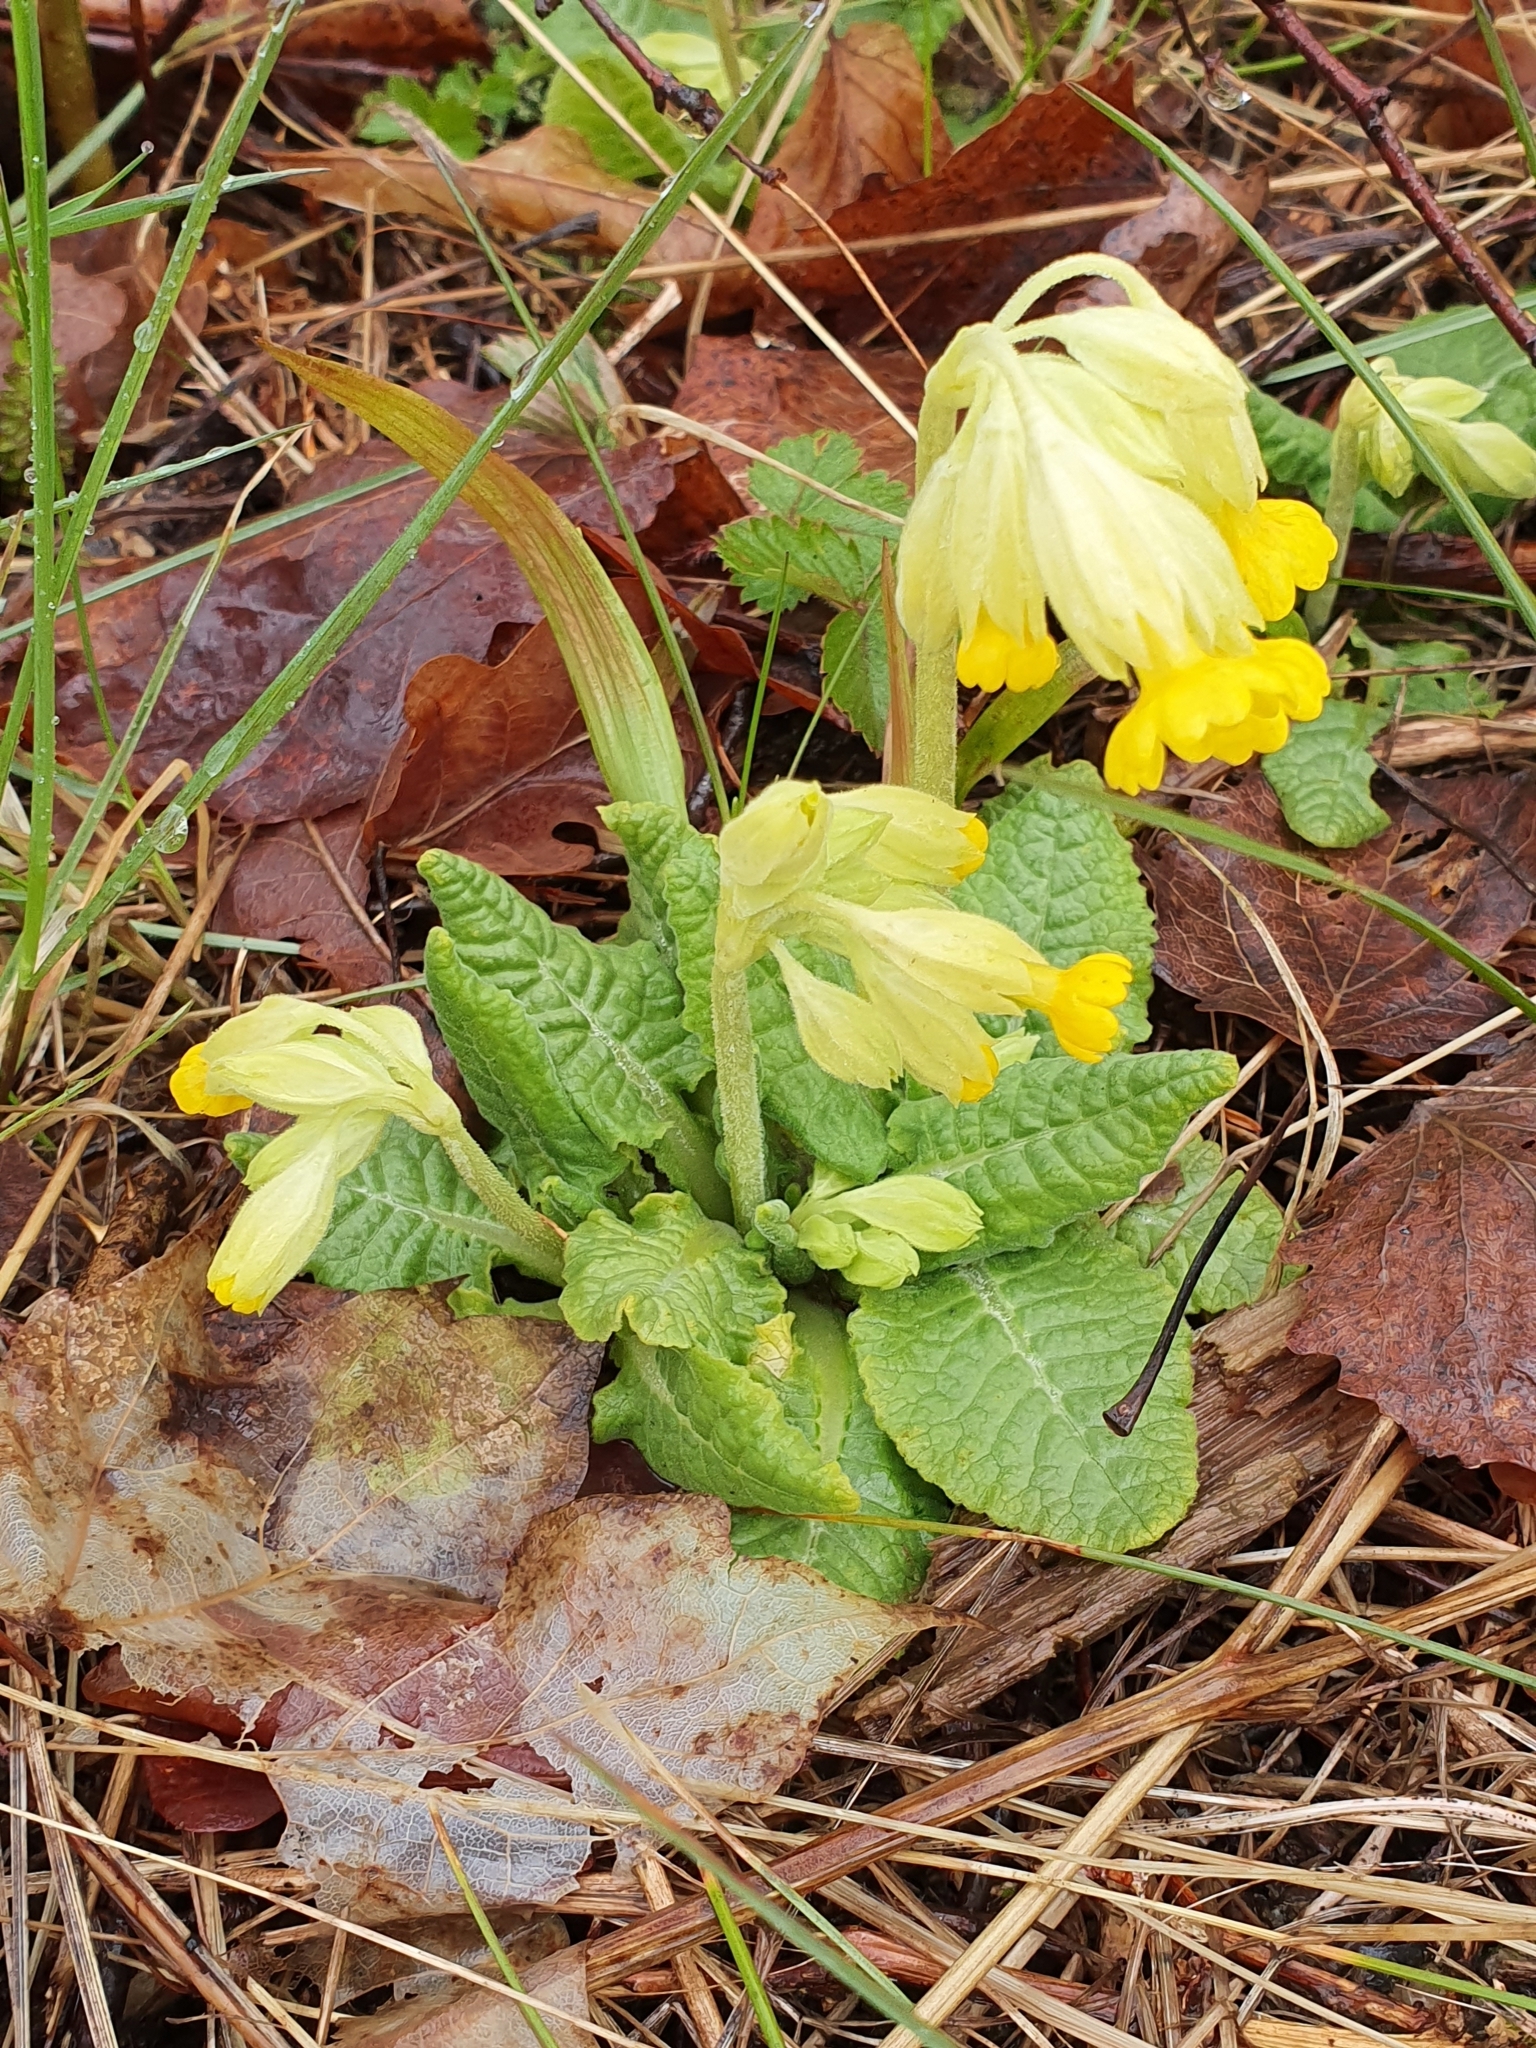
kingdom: Plantae
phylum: Tracheophyta
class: Magnoliopsida
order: Ericales
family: Primulaceae
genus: Primula
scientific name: Primula veris
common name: Cowslip
